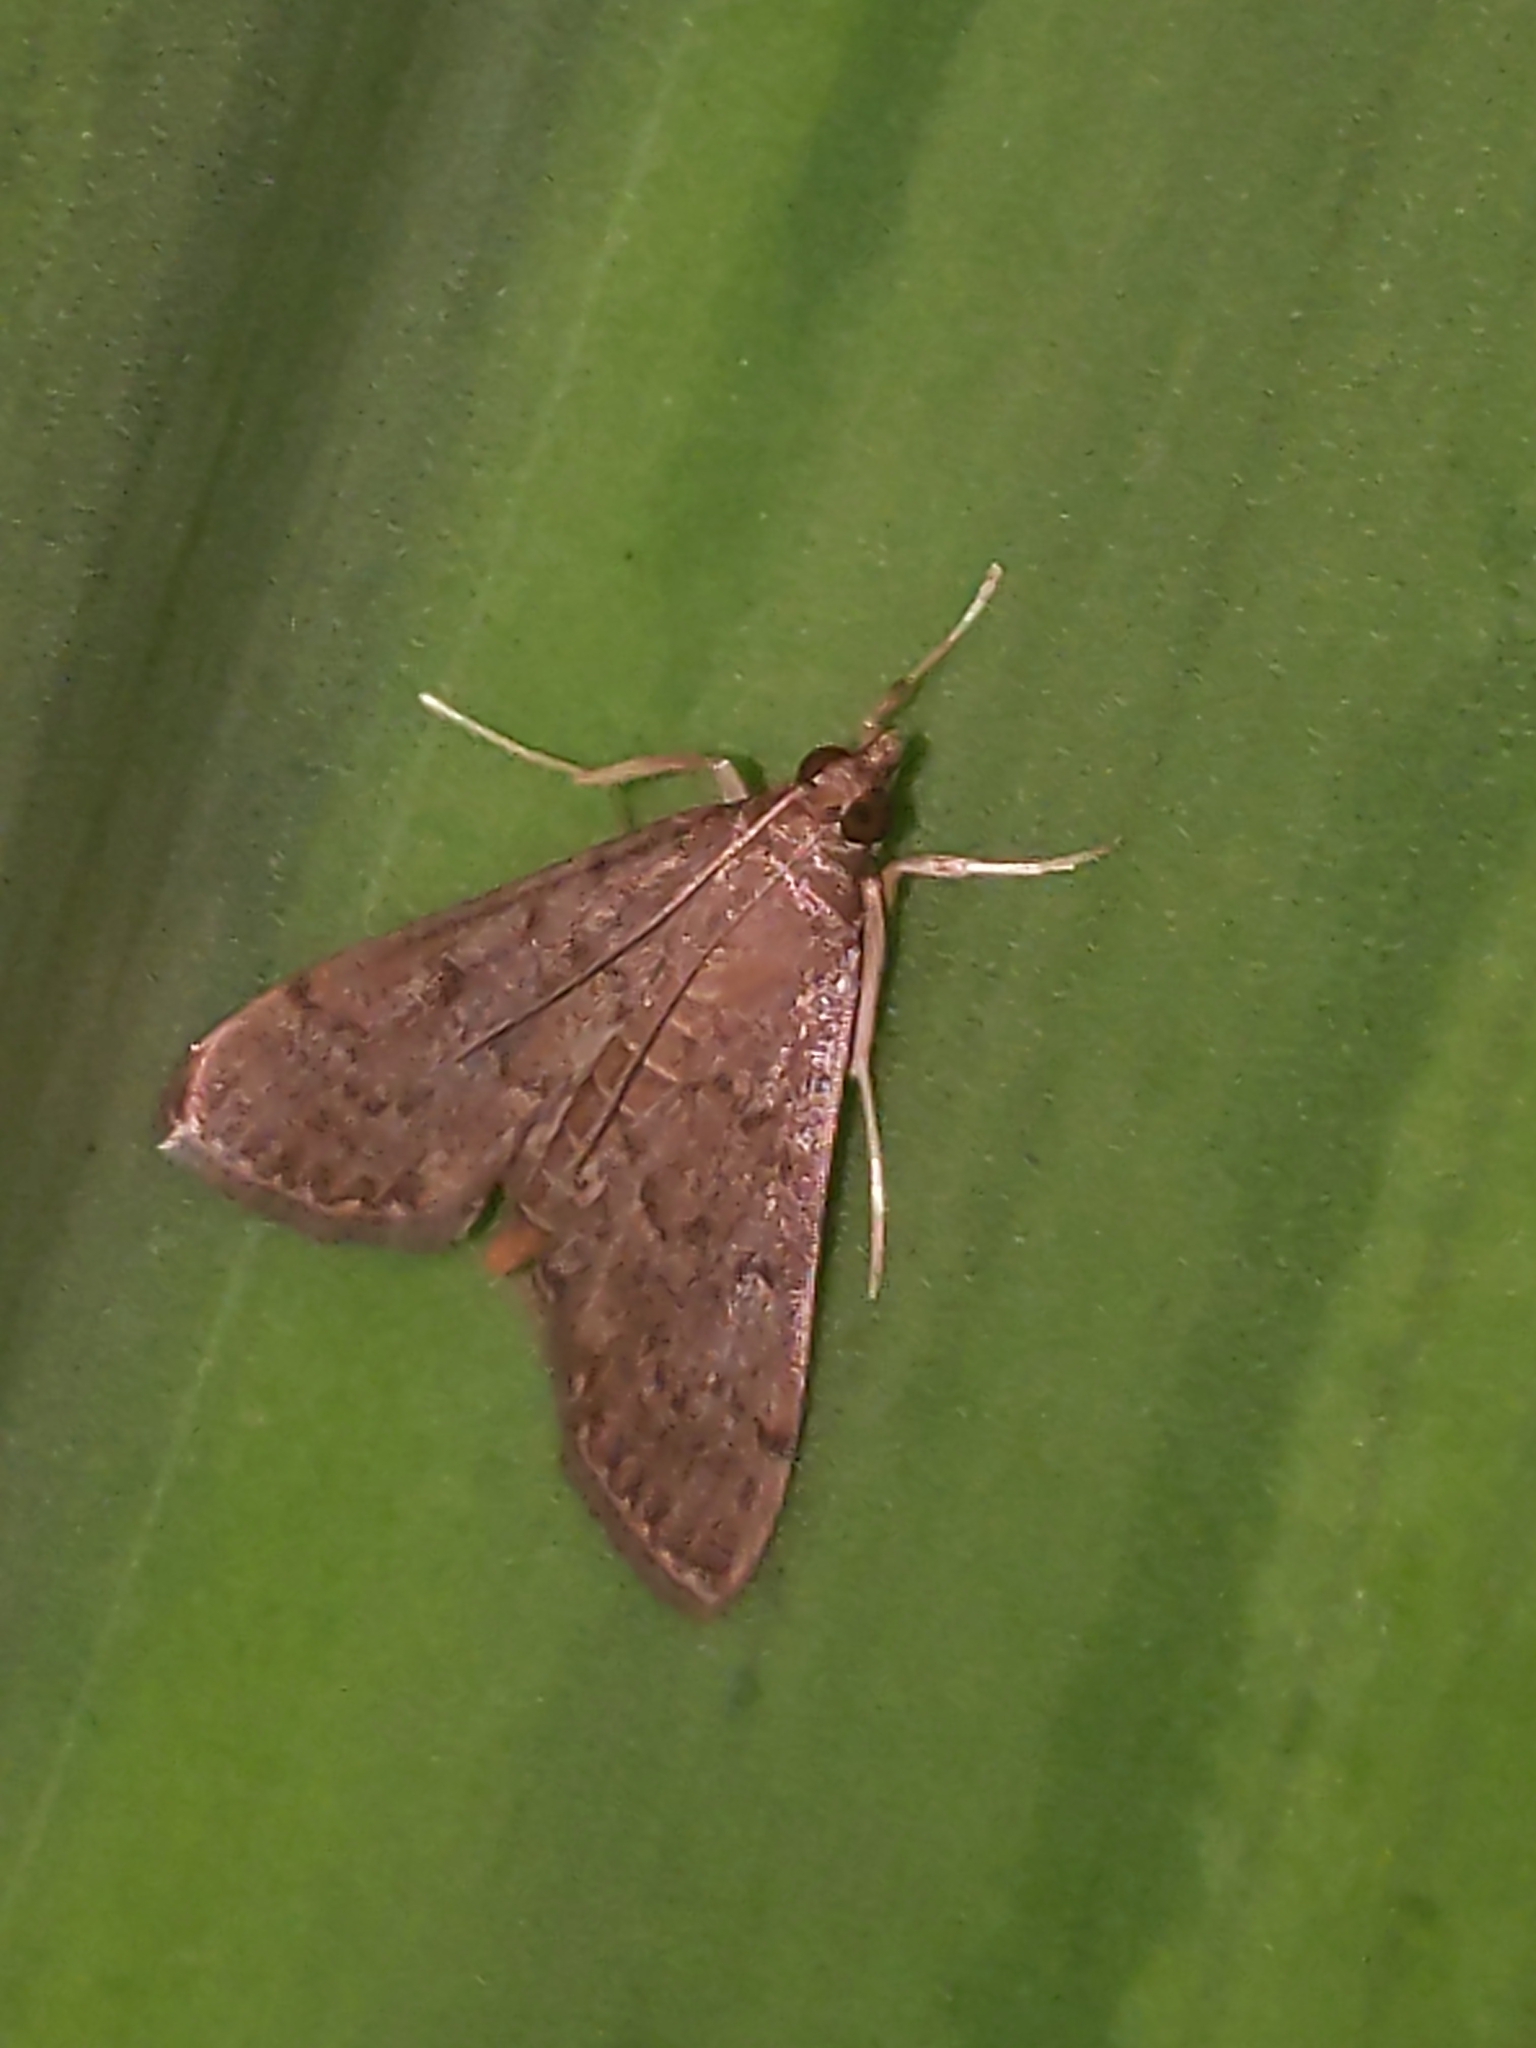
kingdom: Animalia
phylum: Arthropoda
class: Insecta
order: Lepidoptera
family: Crambidae
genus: Herpetogramma
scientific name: Herpetogramma phaeopteralis
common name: Dusky herpetogramma moth
